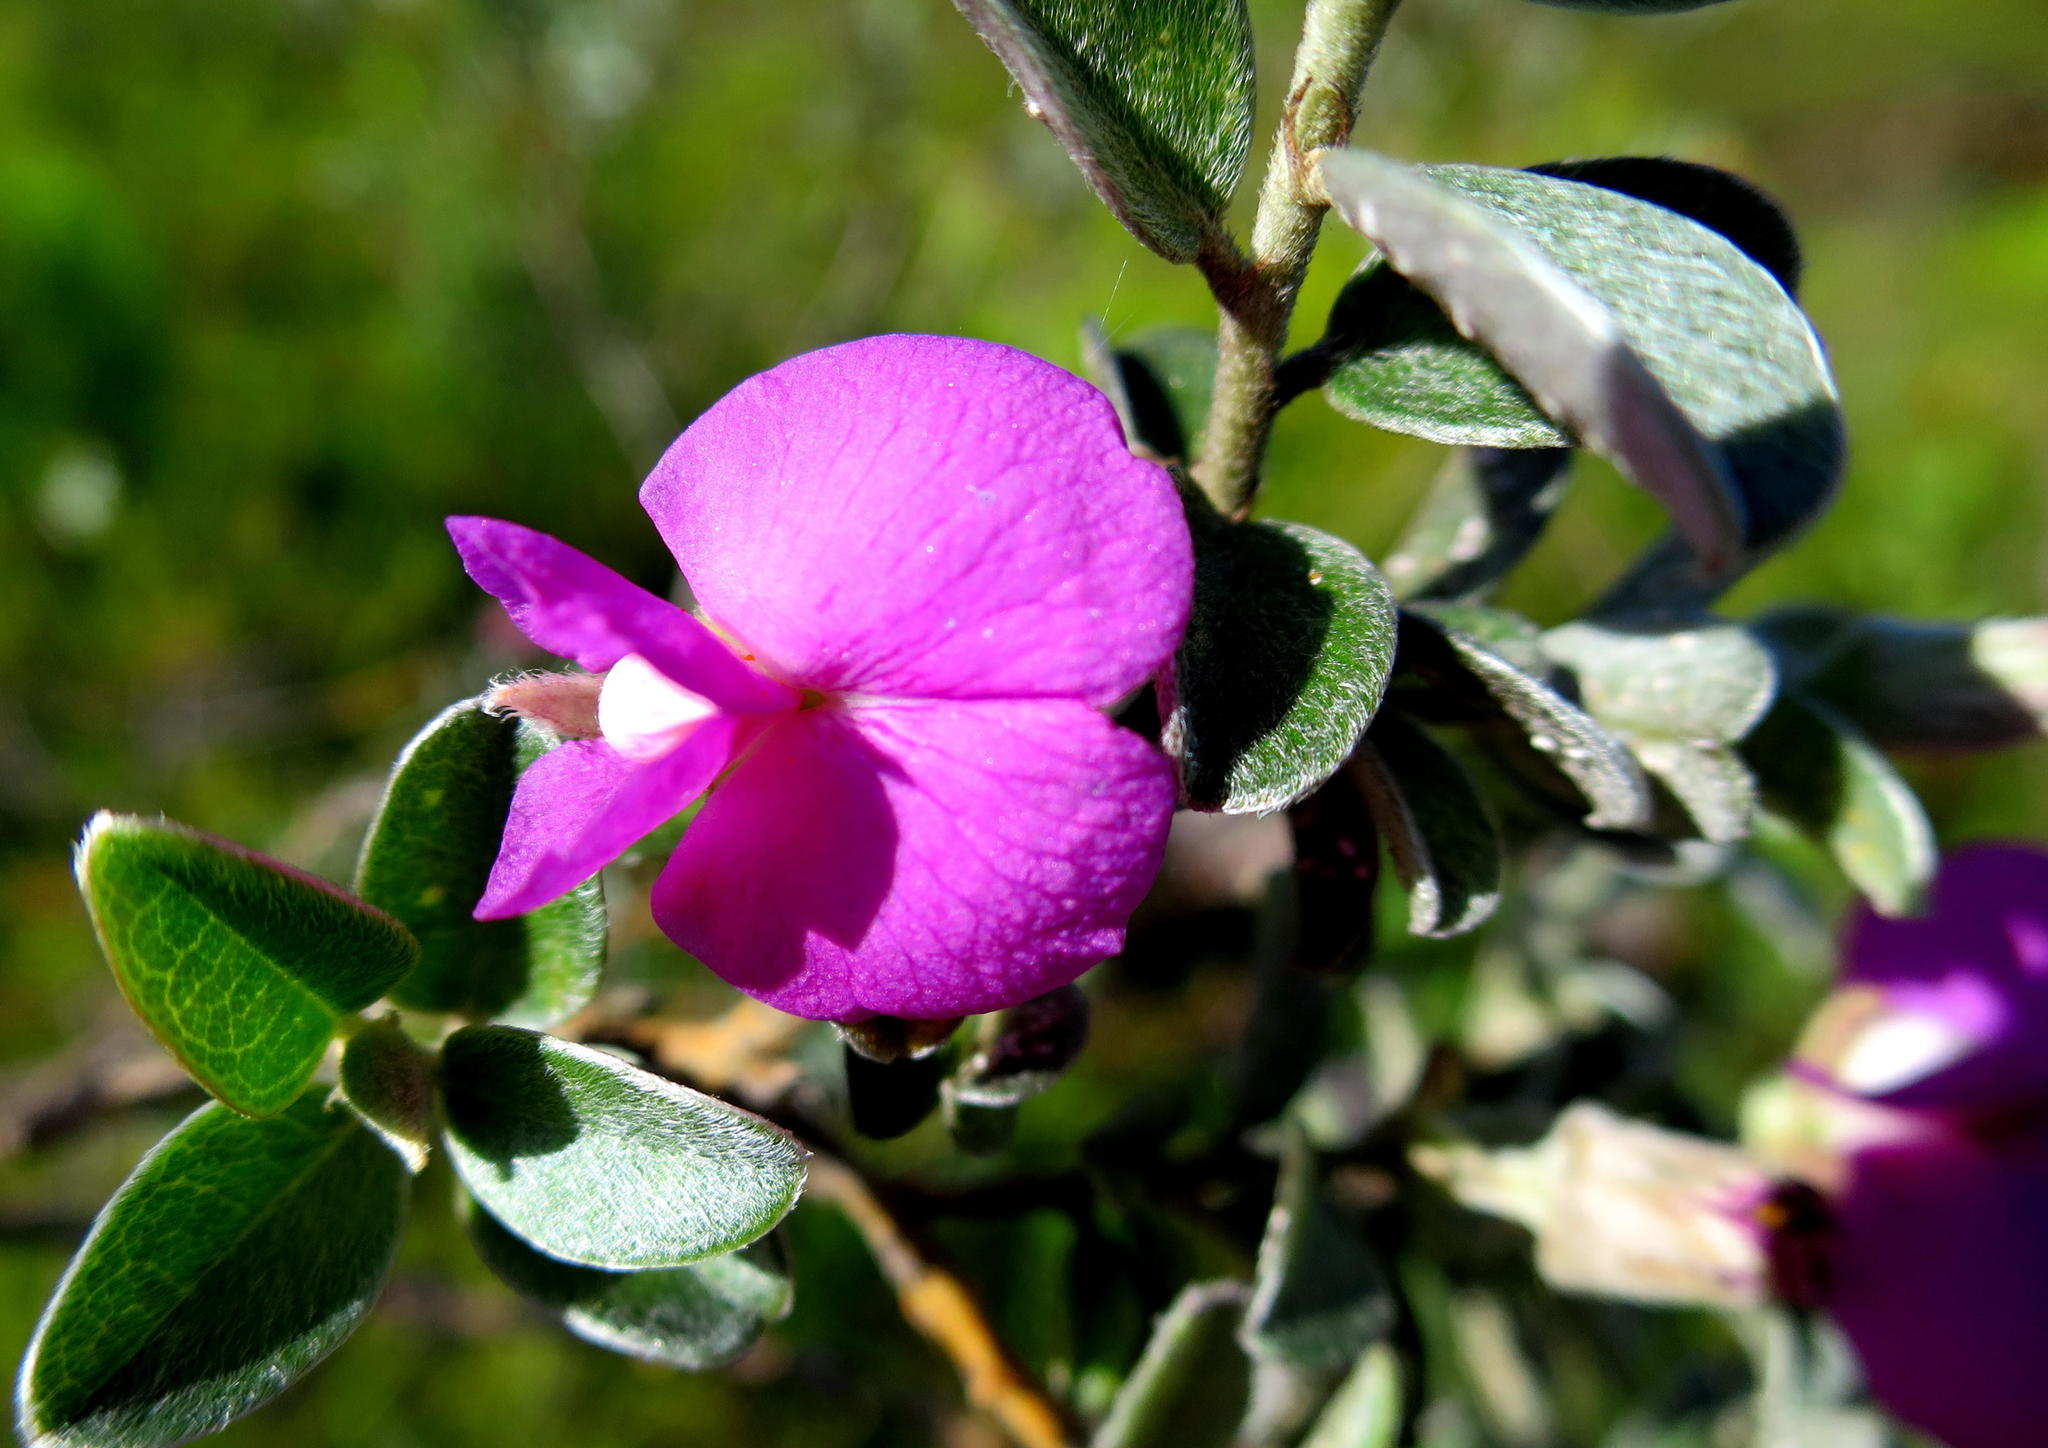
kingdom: Plantae
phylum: Tracheophyta
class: Magnoliopsida
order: Fabales
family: Fabaceae
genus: Podalyria
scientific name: Podalyria burchellii
